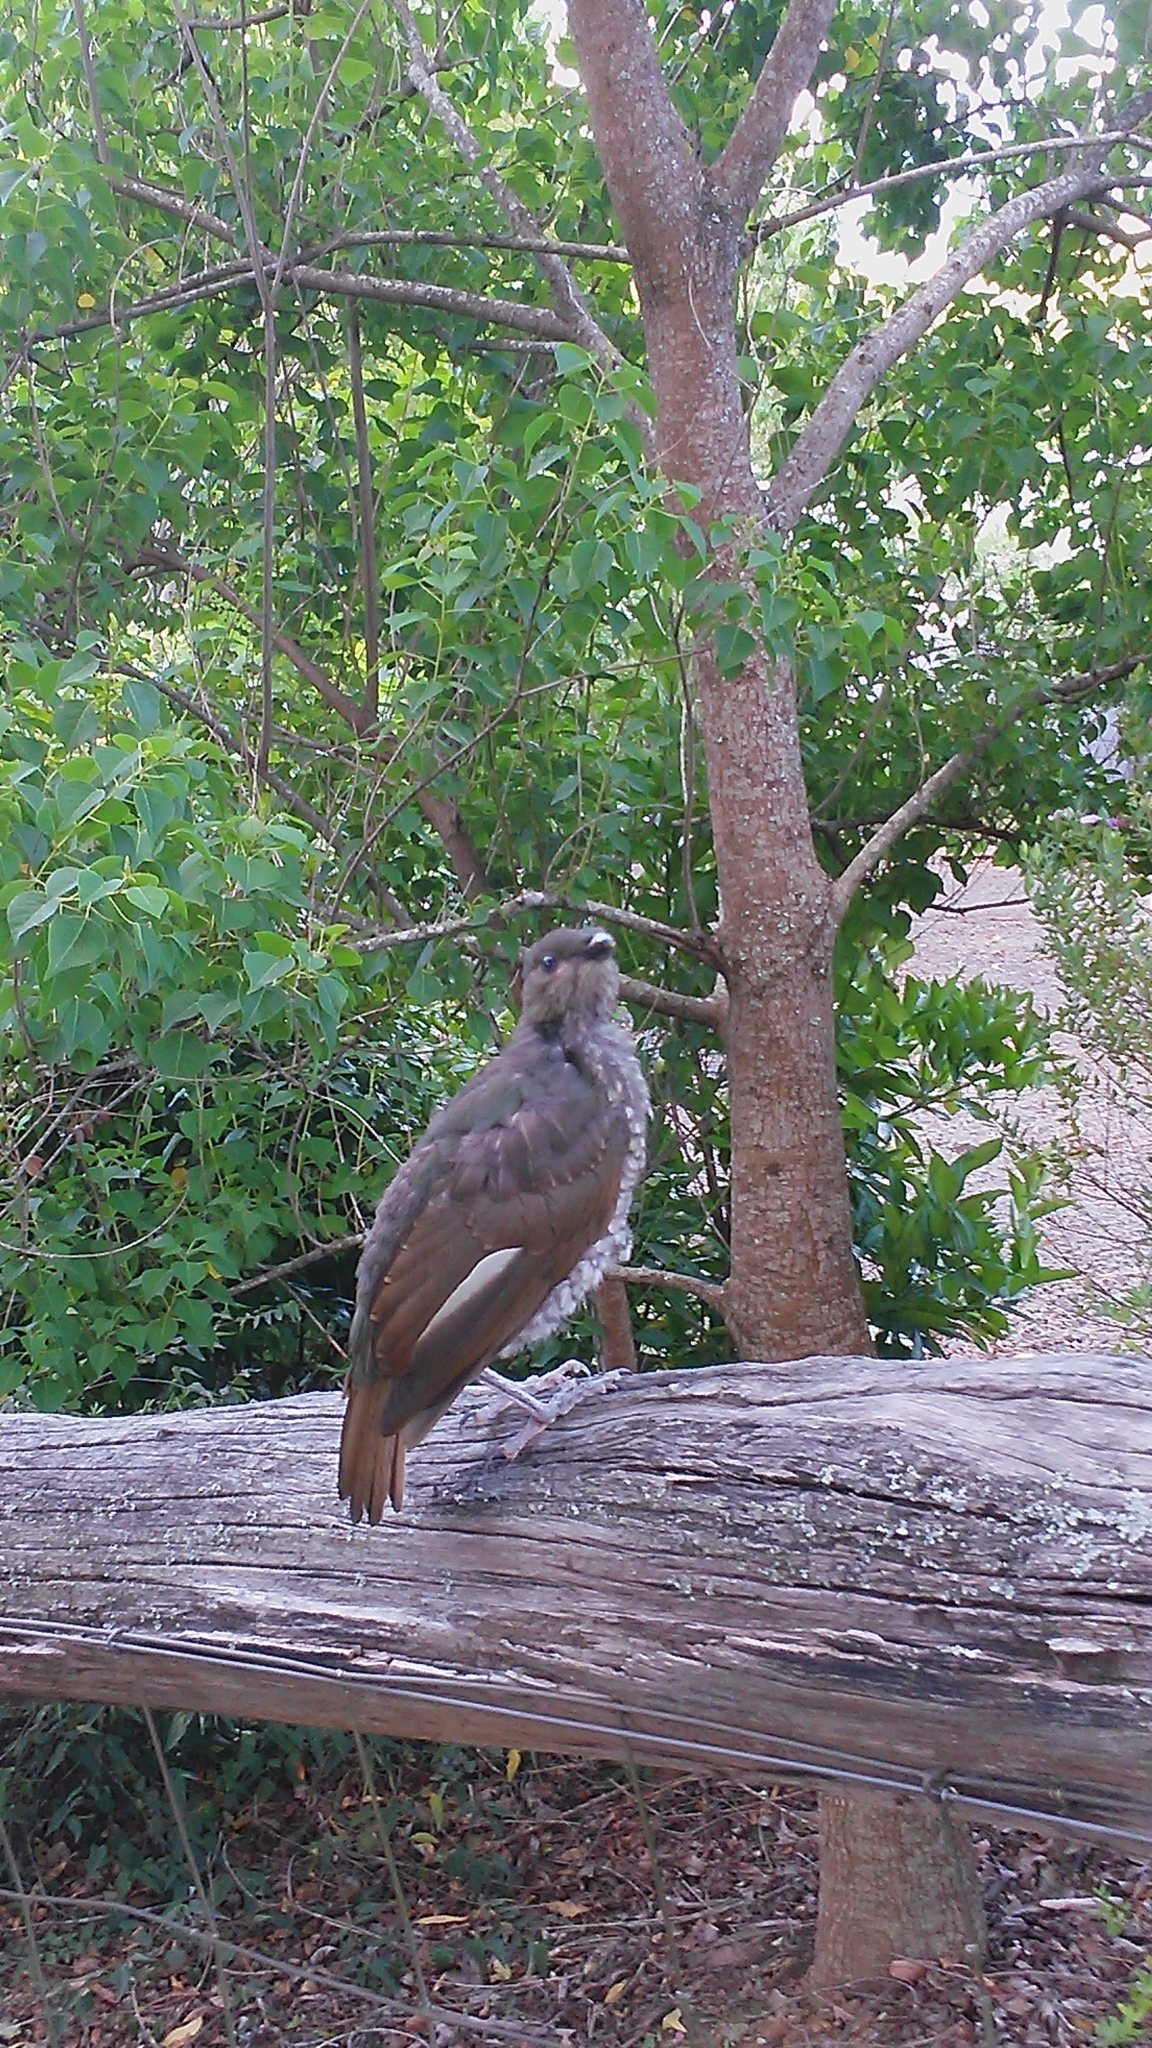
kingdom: Animalia
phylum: Chordata
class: Aves
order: Passeriformes
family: Ptilonorhynchidae
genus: Ptilonorhynchus
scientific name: Ptilonorhynchus violaceus
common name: Satin bowerbird
